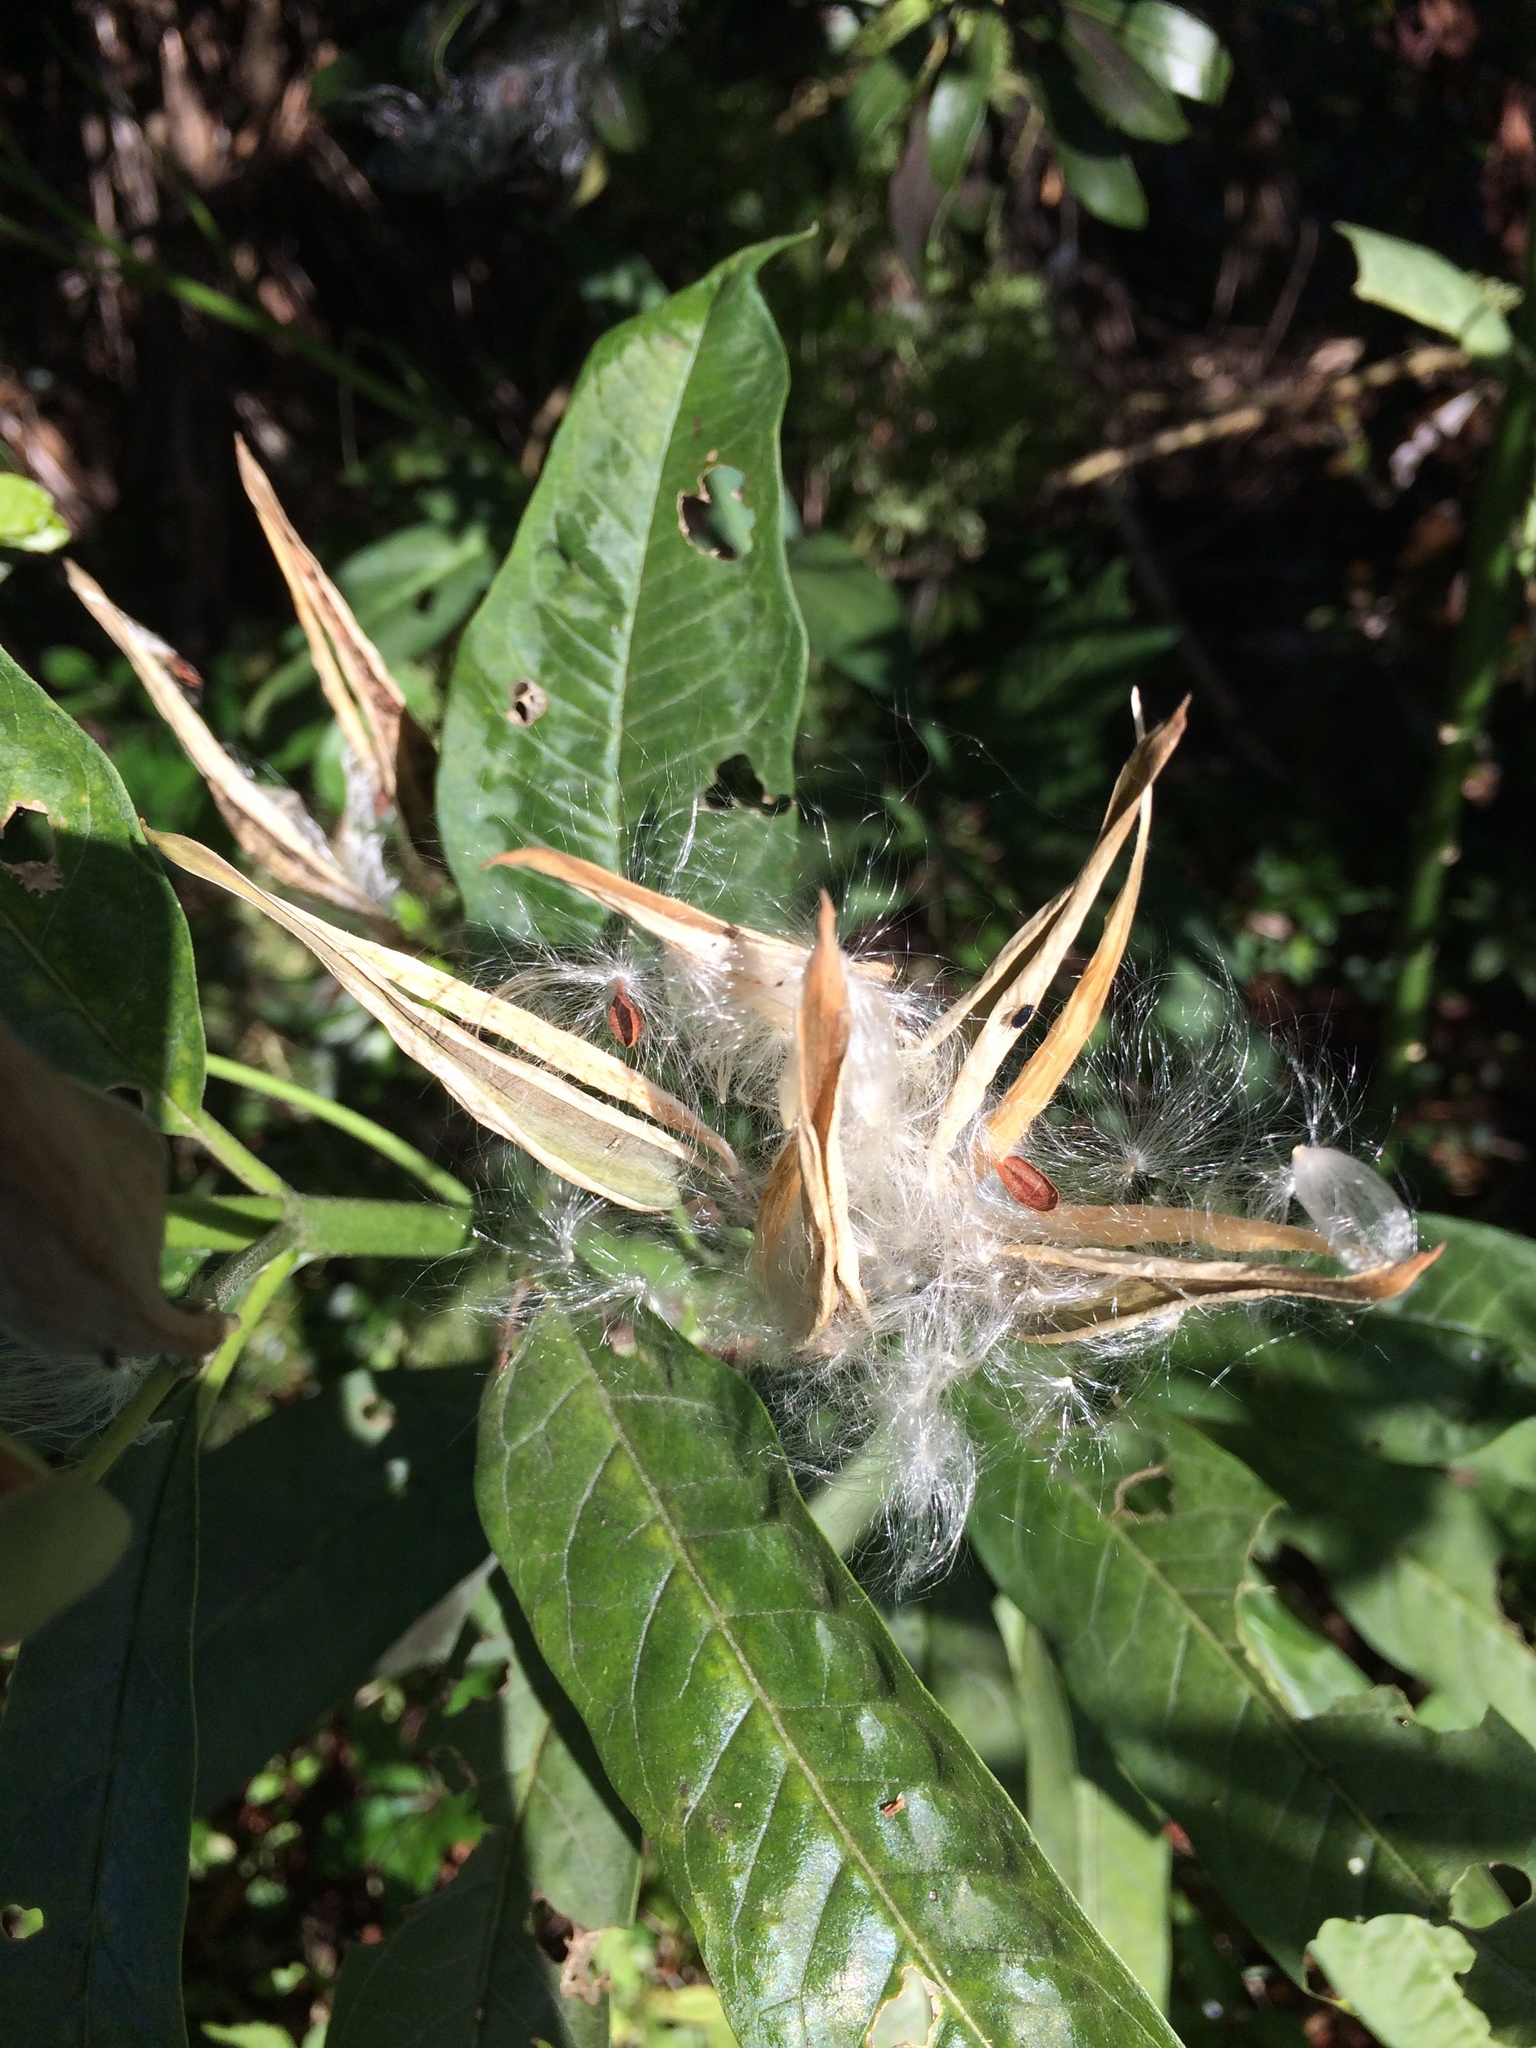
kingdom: Plantae
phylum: Tracheophyta
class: Magnoliopsida
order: Gentianales
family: Apocynaceae
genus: Asclepias
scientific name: Asclepias curassavica
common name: Bloodflower
